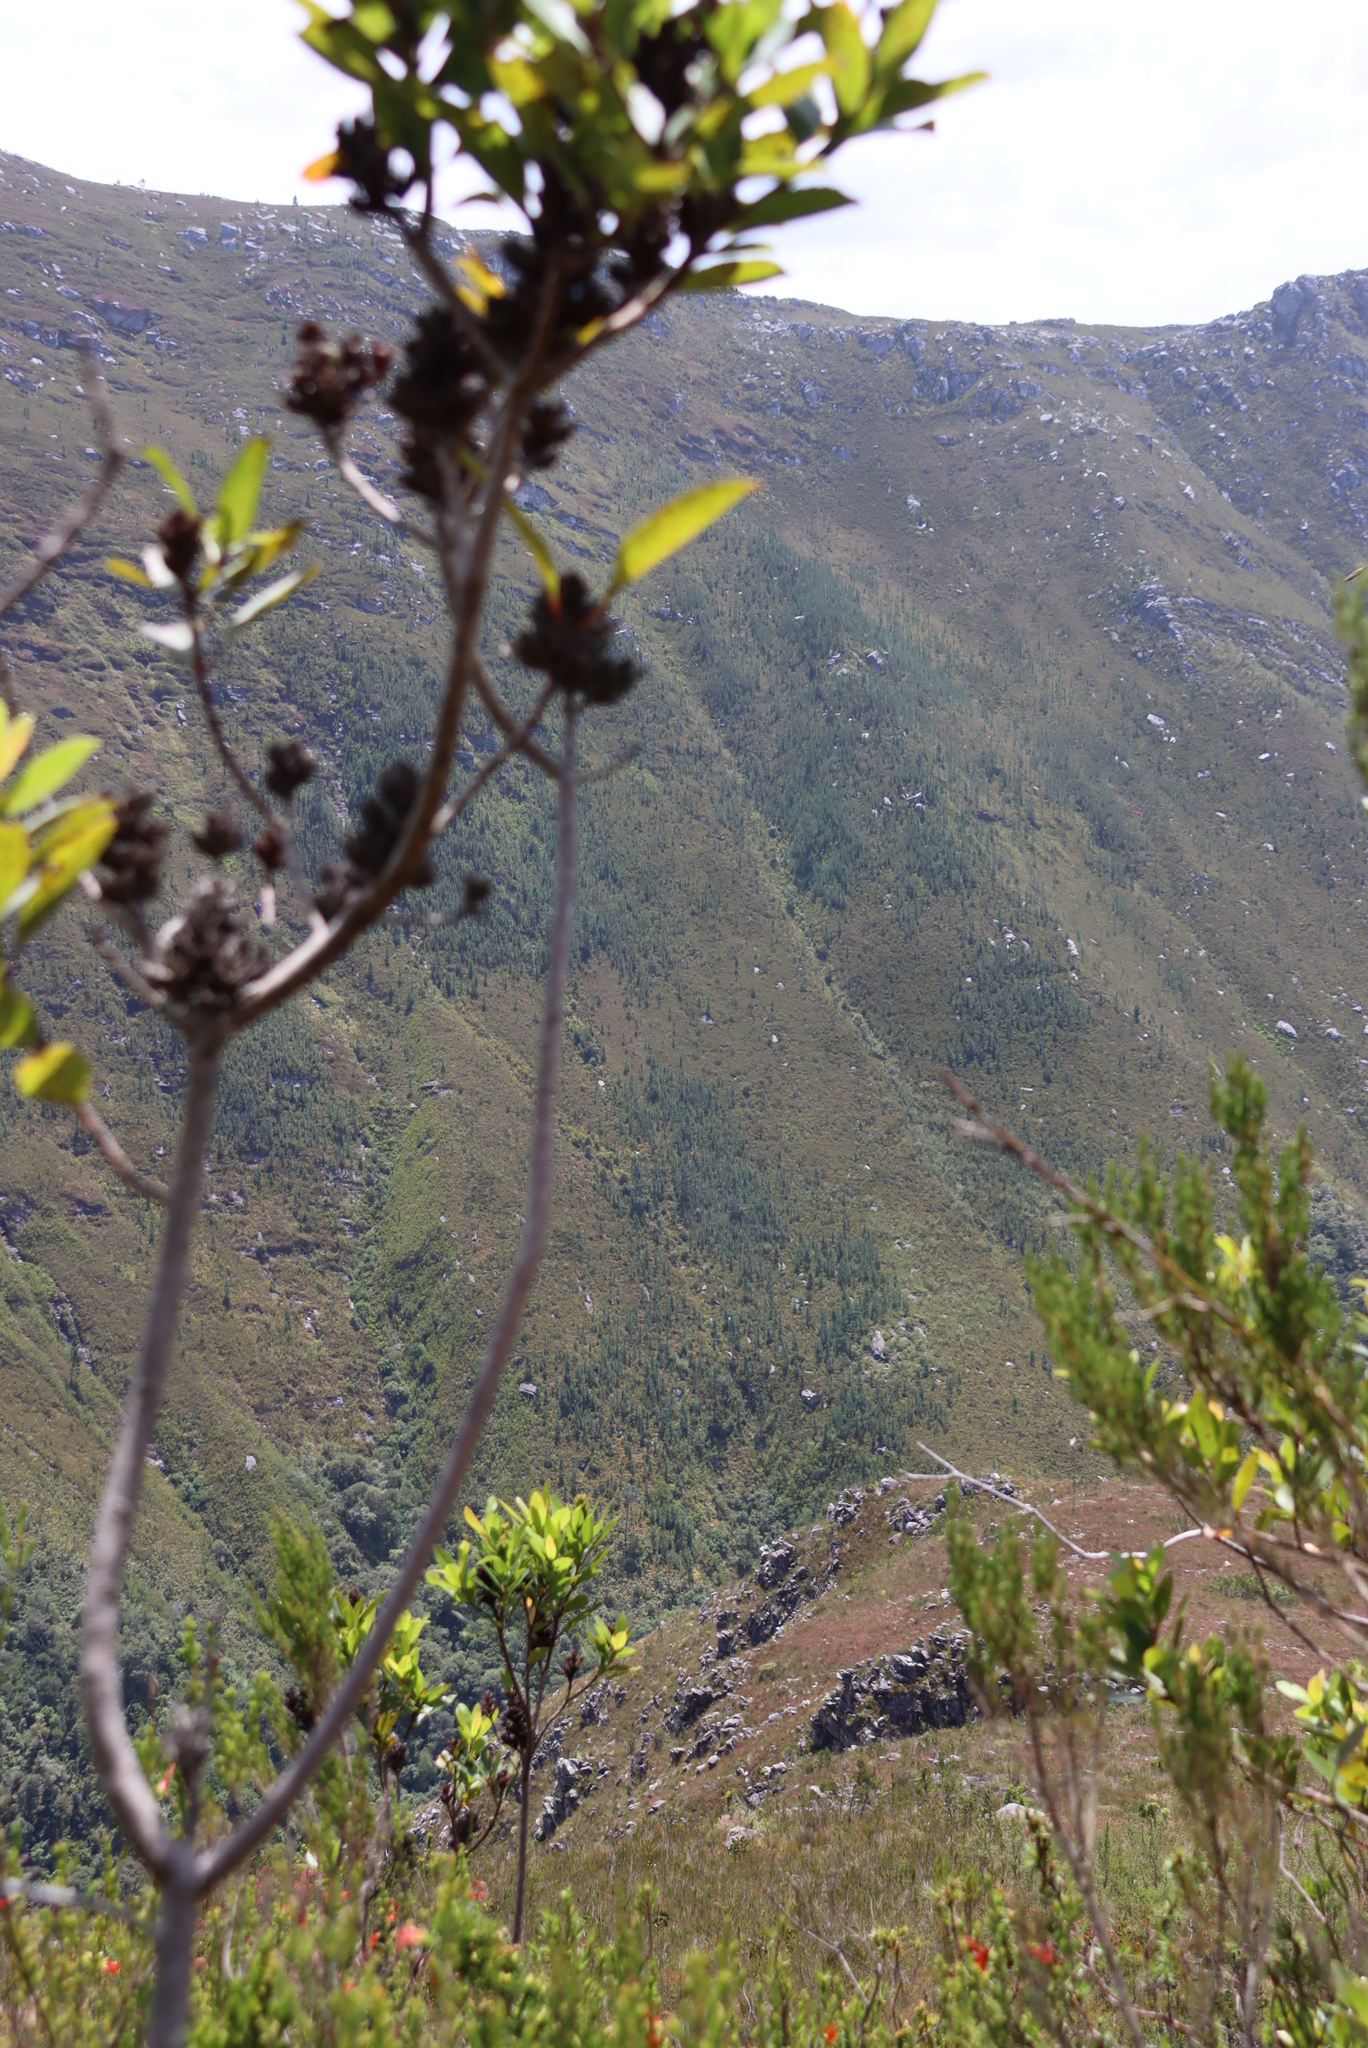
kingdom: Plantae
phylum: Tracheophyta
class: Magnoliopsida
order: Sapindales
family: Anacardiaceae
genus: Laurophyllus
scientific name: Laurophyllus capensis
